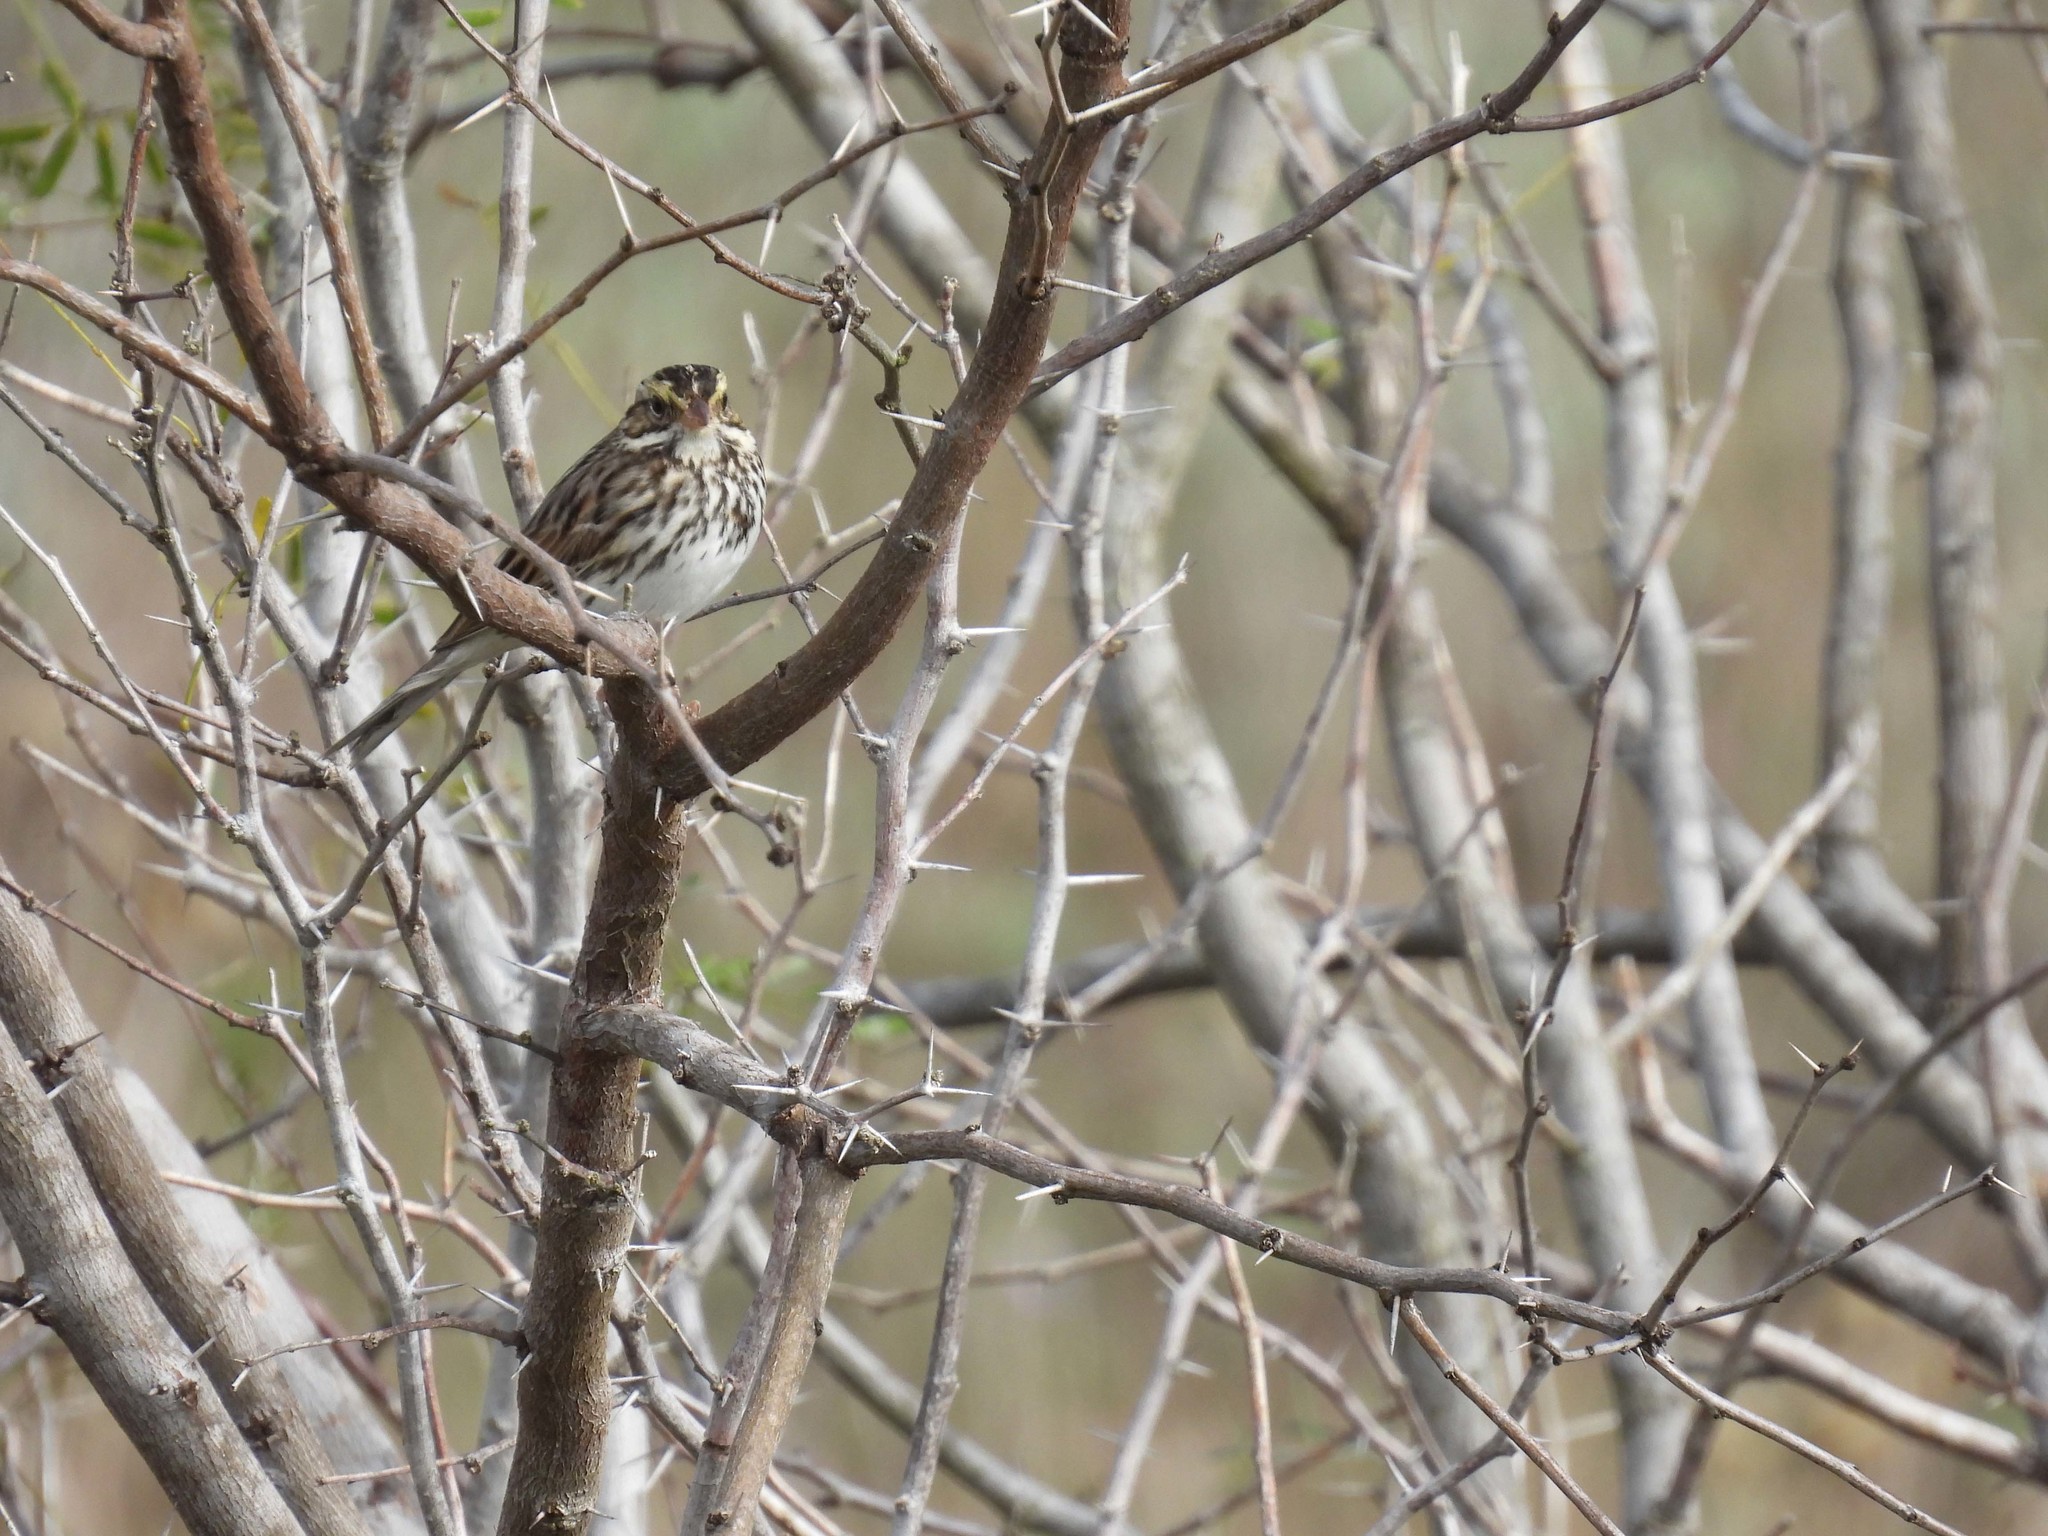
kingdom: Animalia
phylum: Chordata
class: Aves
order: Passeriformes
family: Passerellidae
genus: Passerculus
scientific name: Passerculus sandwichensis
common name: Savannah sparrow
